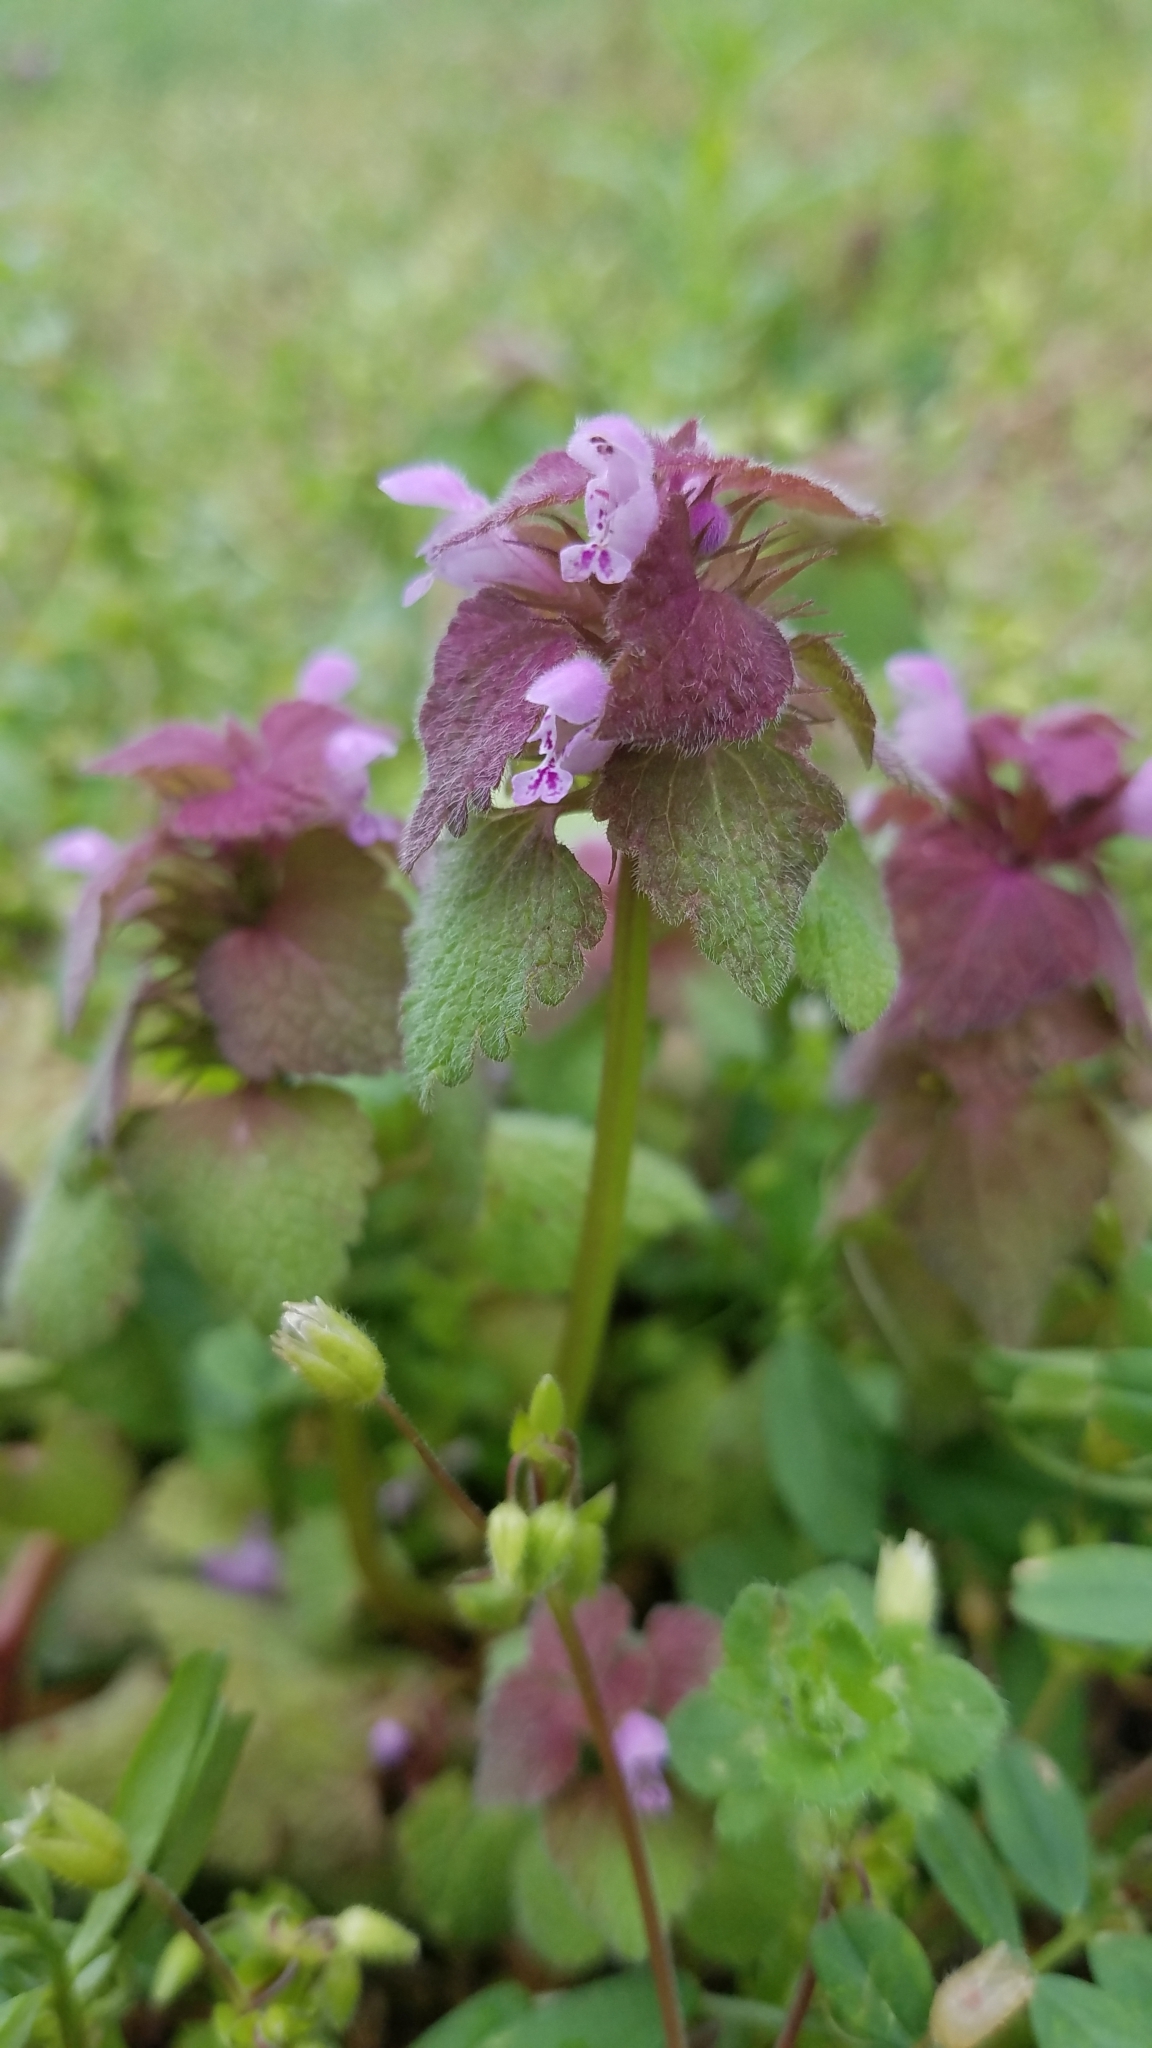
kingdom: Plantae
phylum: Tracheophyta
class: Magnoliopsida
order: Lamiales
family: Lamiaceae
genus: Lamium
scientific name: Lamium purpureum
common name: Red dead-nettle
